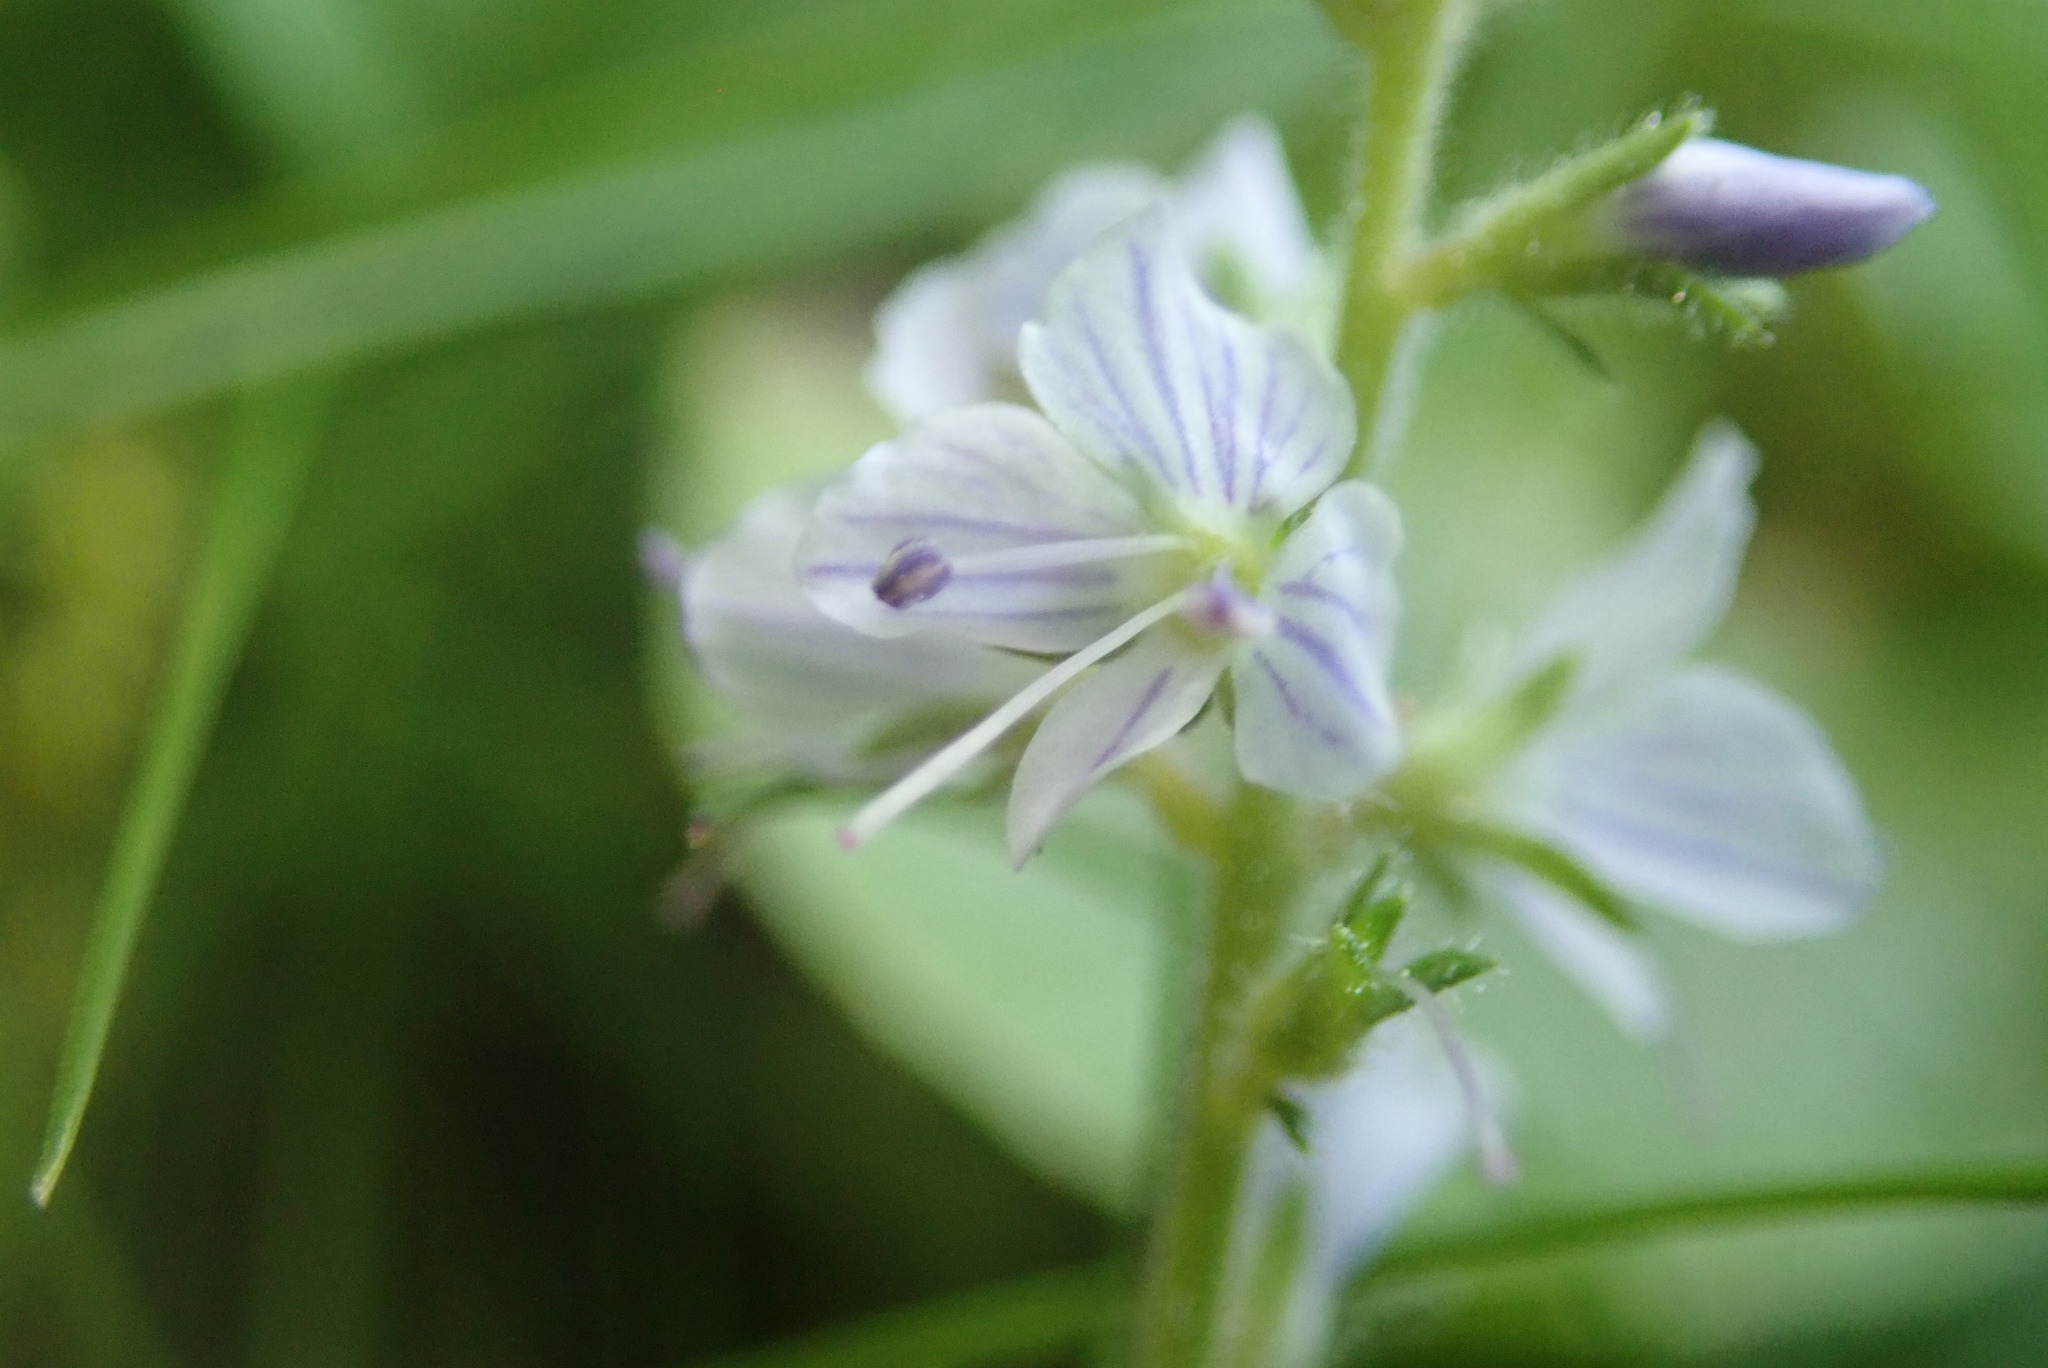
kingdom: Plantae
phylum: Tracheophyta
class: Magnoliopsida
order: Lamiales
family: Plantaginaceae
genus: Veronica
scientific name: Veronica officinalis
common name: Common speedwell
